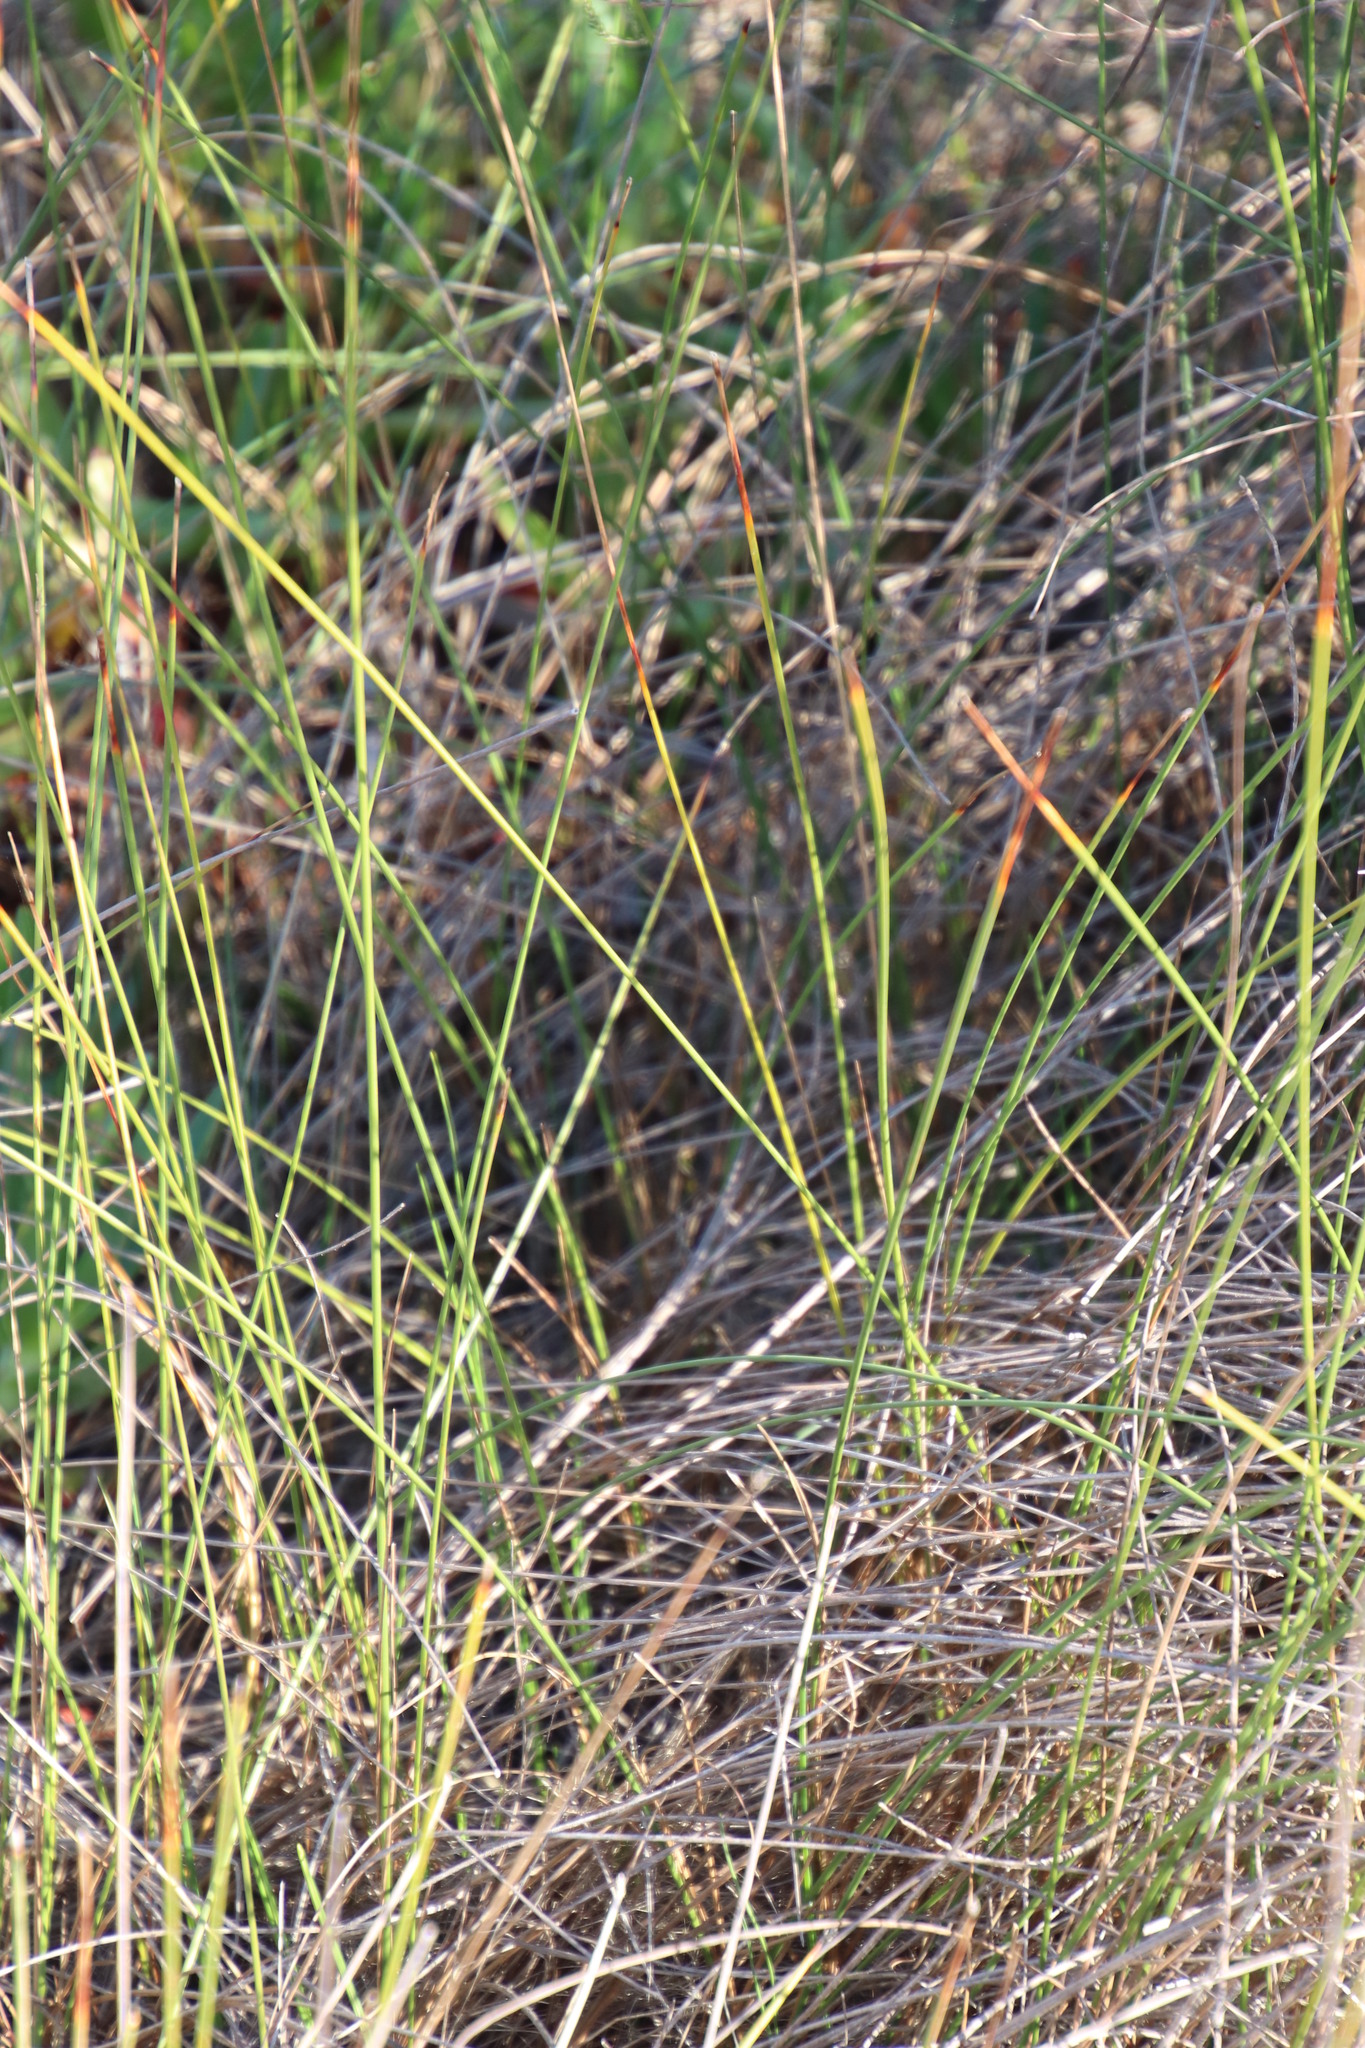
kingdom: Plantae
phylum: Tracheophyta
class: Liliopsida
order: Poales
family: Cyperaceae
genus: Ficinia
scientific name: Ficinia indica
